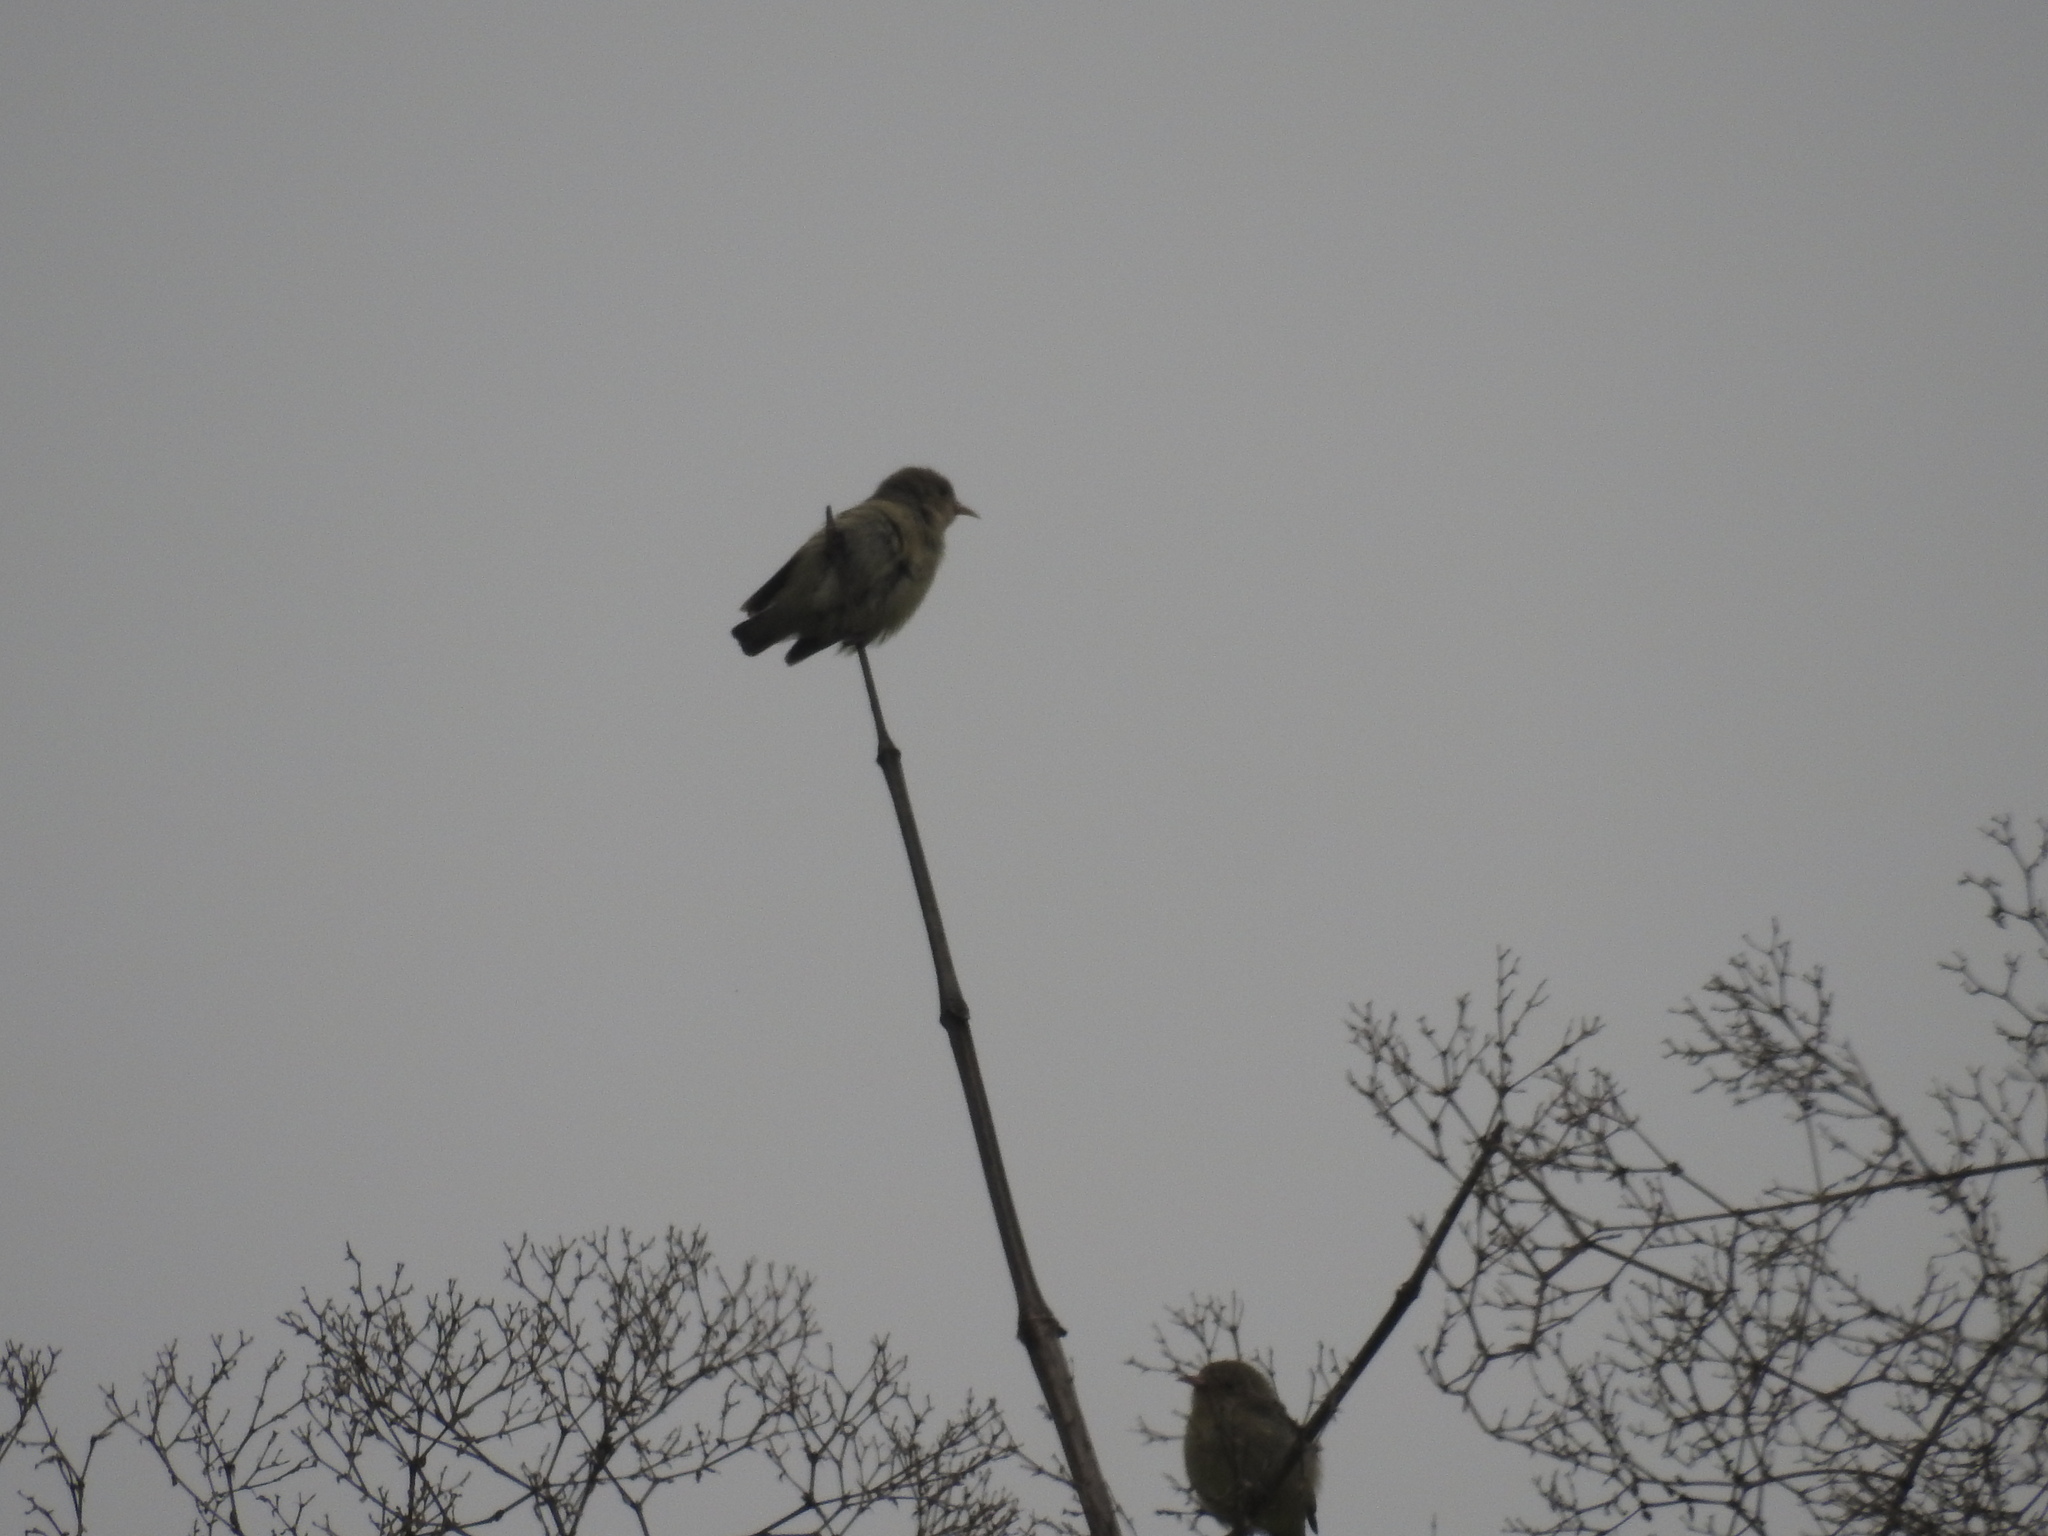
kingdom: Animalia
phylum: Chordata
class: Aves
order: Passeriformes
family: Dicaeidae
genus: Dicaeum
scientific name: Dicaeum erythrorhynchos
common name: Pale-billed flowerpecker
